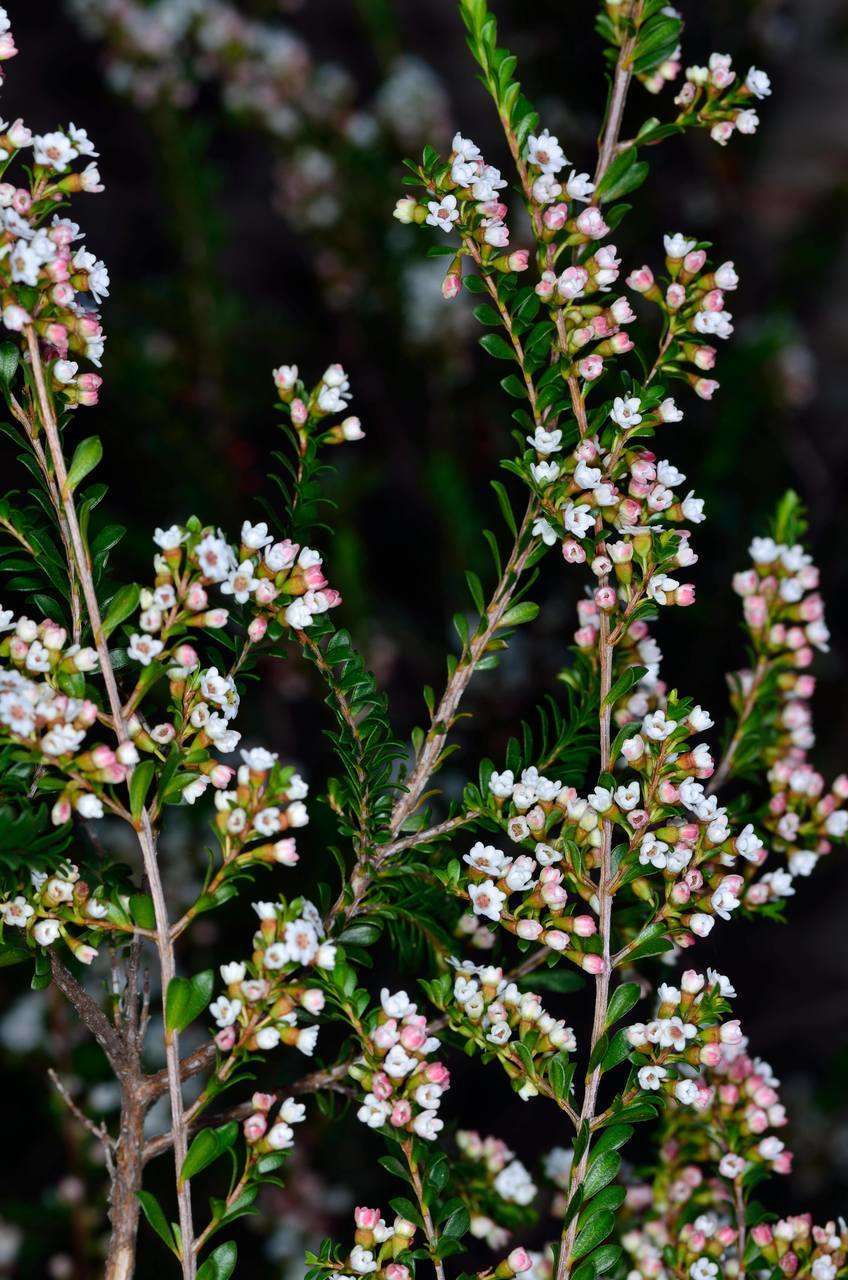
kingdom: Plantae
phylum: Tracheophyta
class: Magnoliopsida
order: Myrtales
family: Myrtaceae
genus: Thryptomene
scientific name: Thryptomene calycina
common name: Grampians thryptomene
